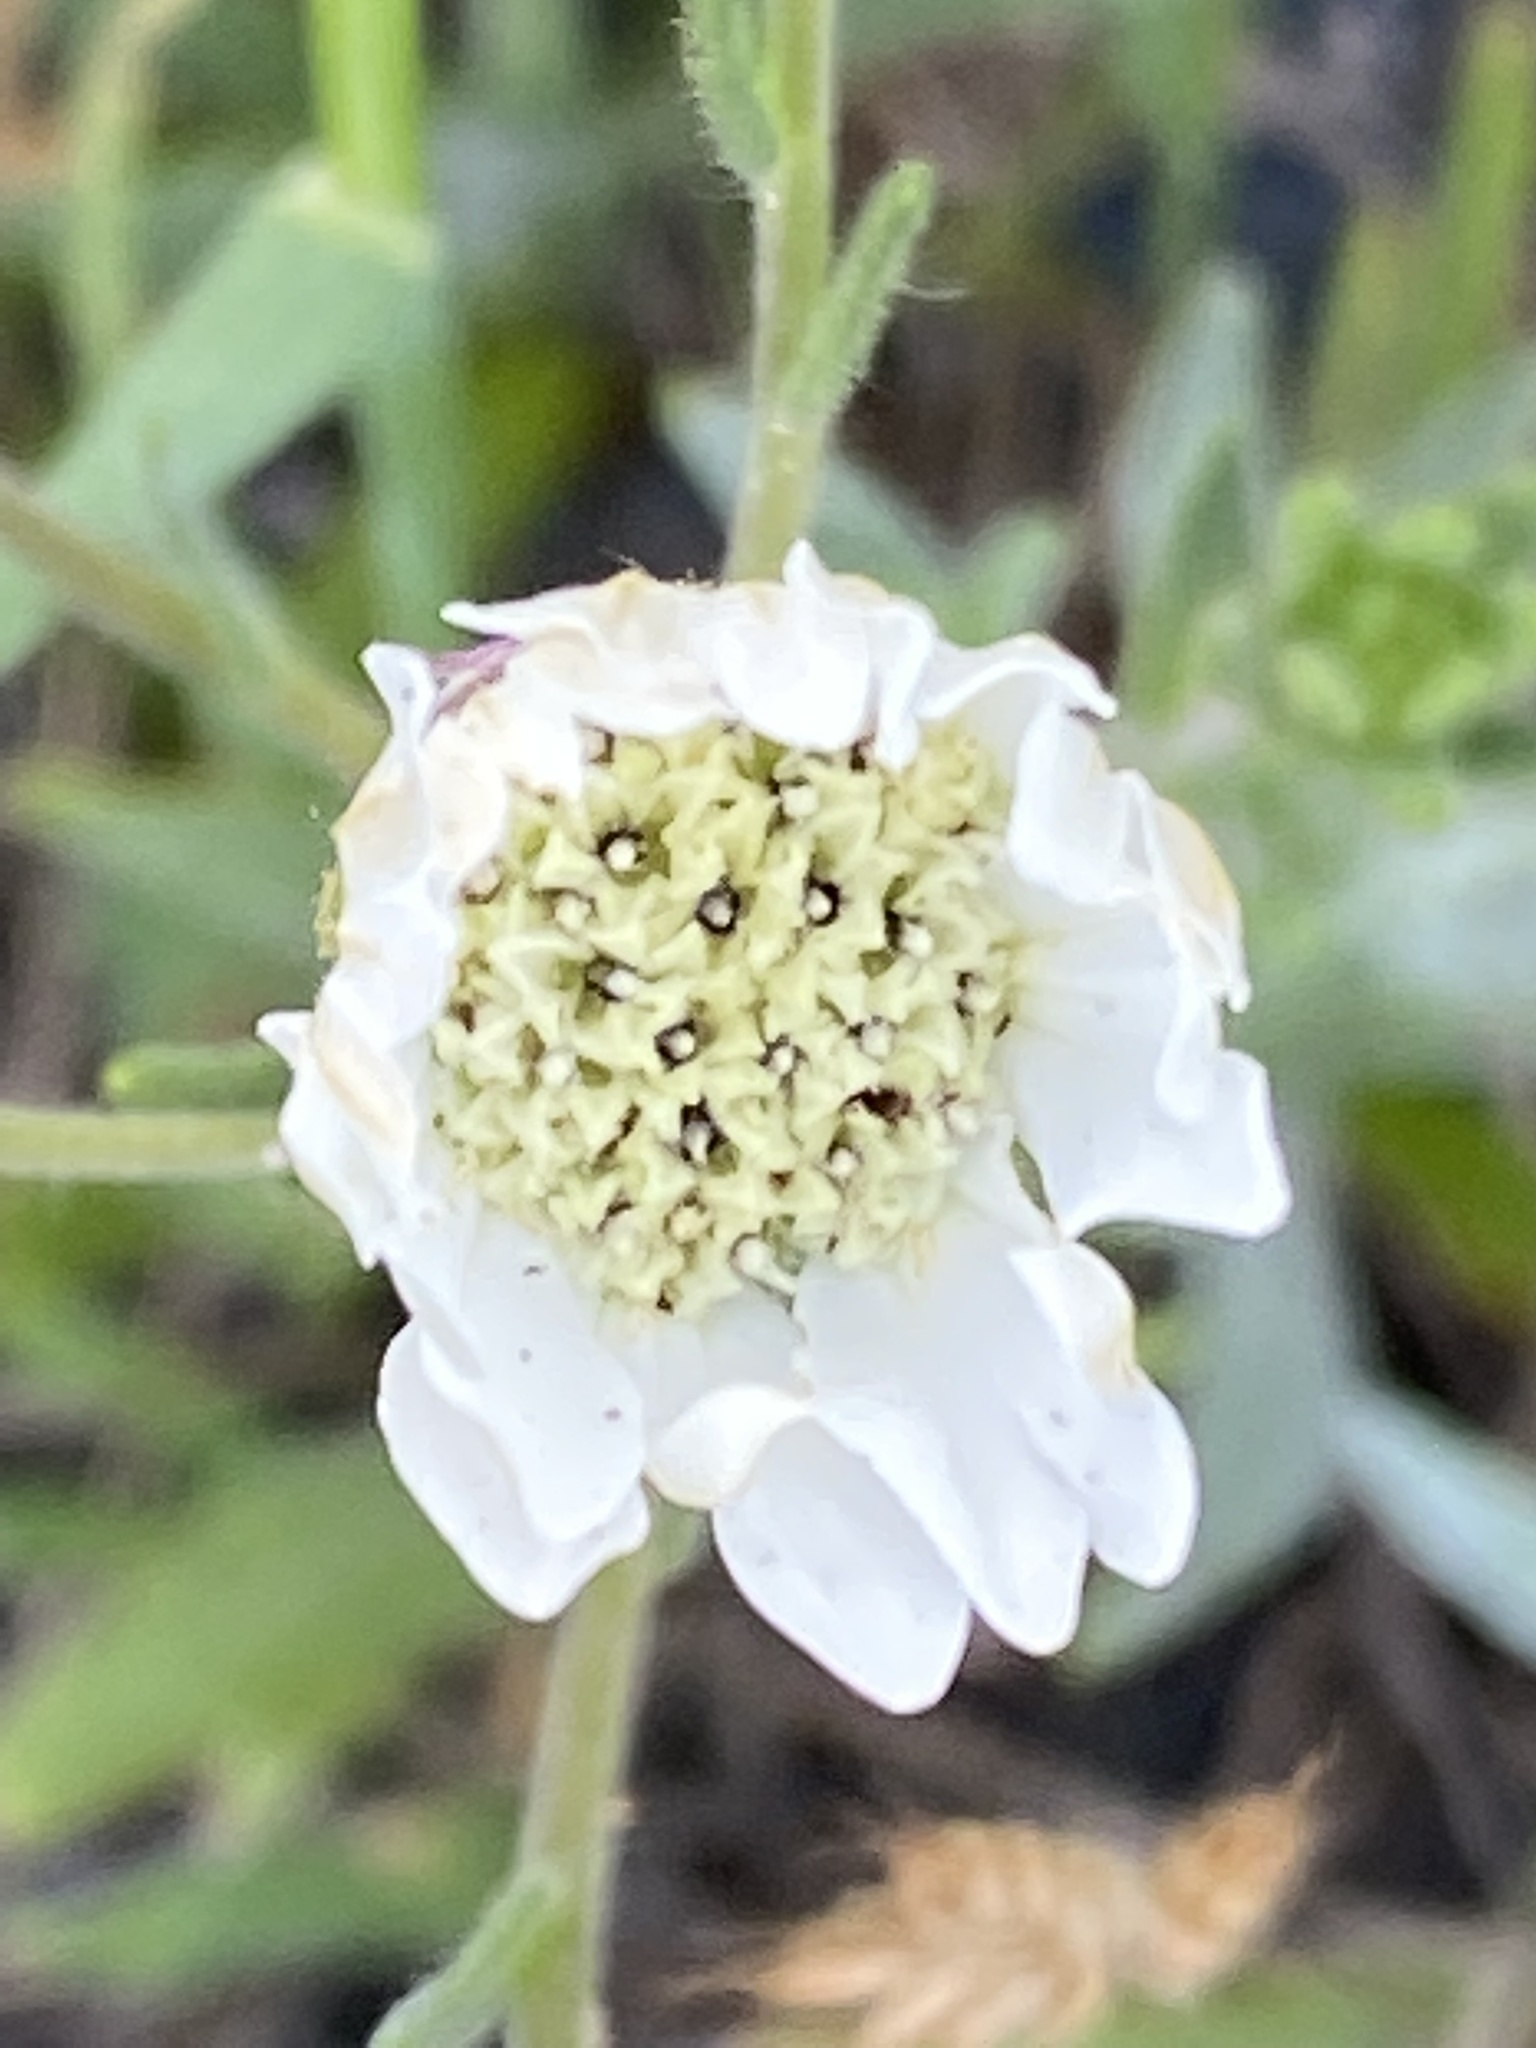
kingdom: Plantae
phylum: Tracheophyta
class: Magnoliopsida
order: Asterales
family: Asteraceae
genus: Hemizonia
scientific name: Hemizonia congesta
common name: Hayfield tarweed
